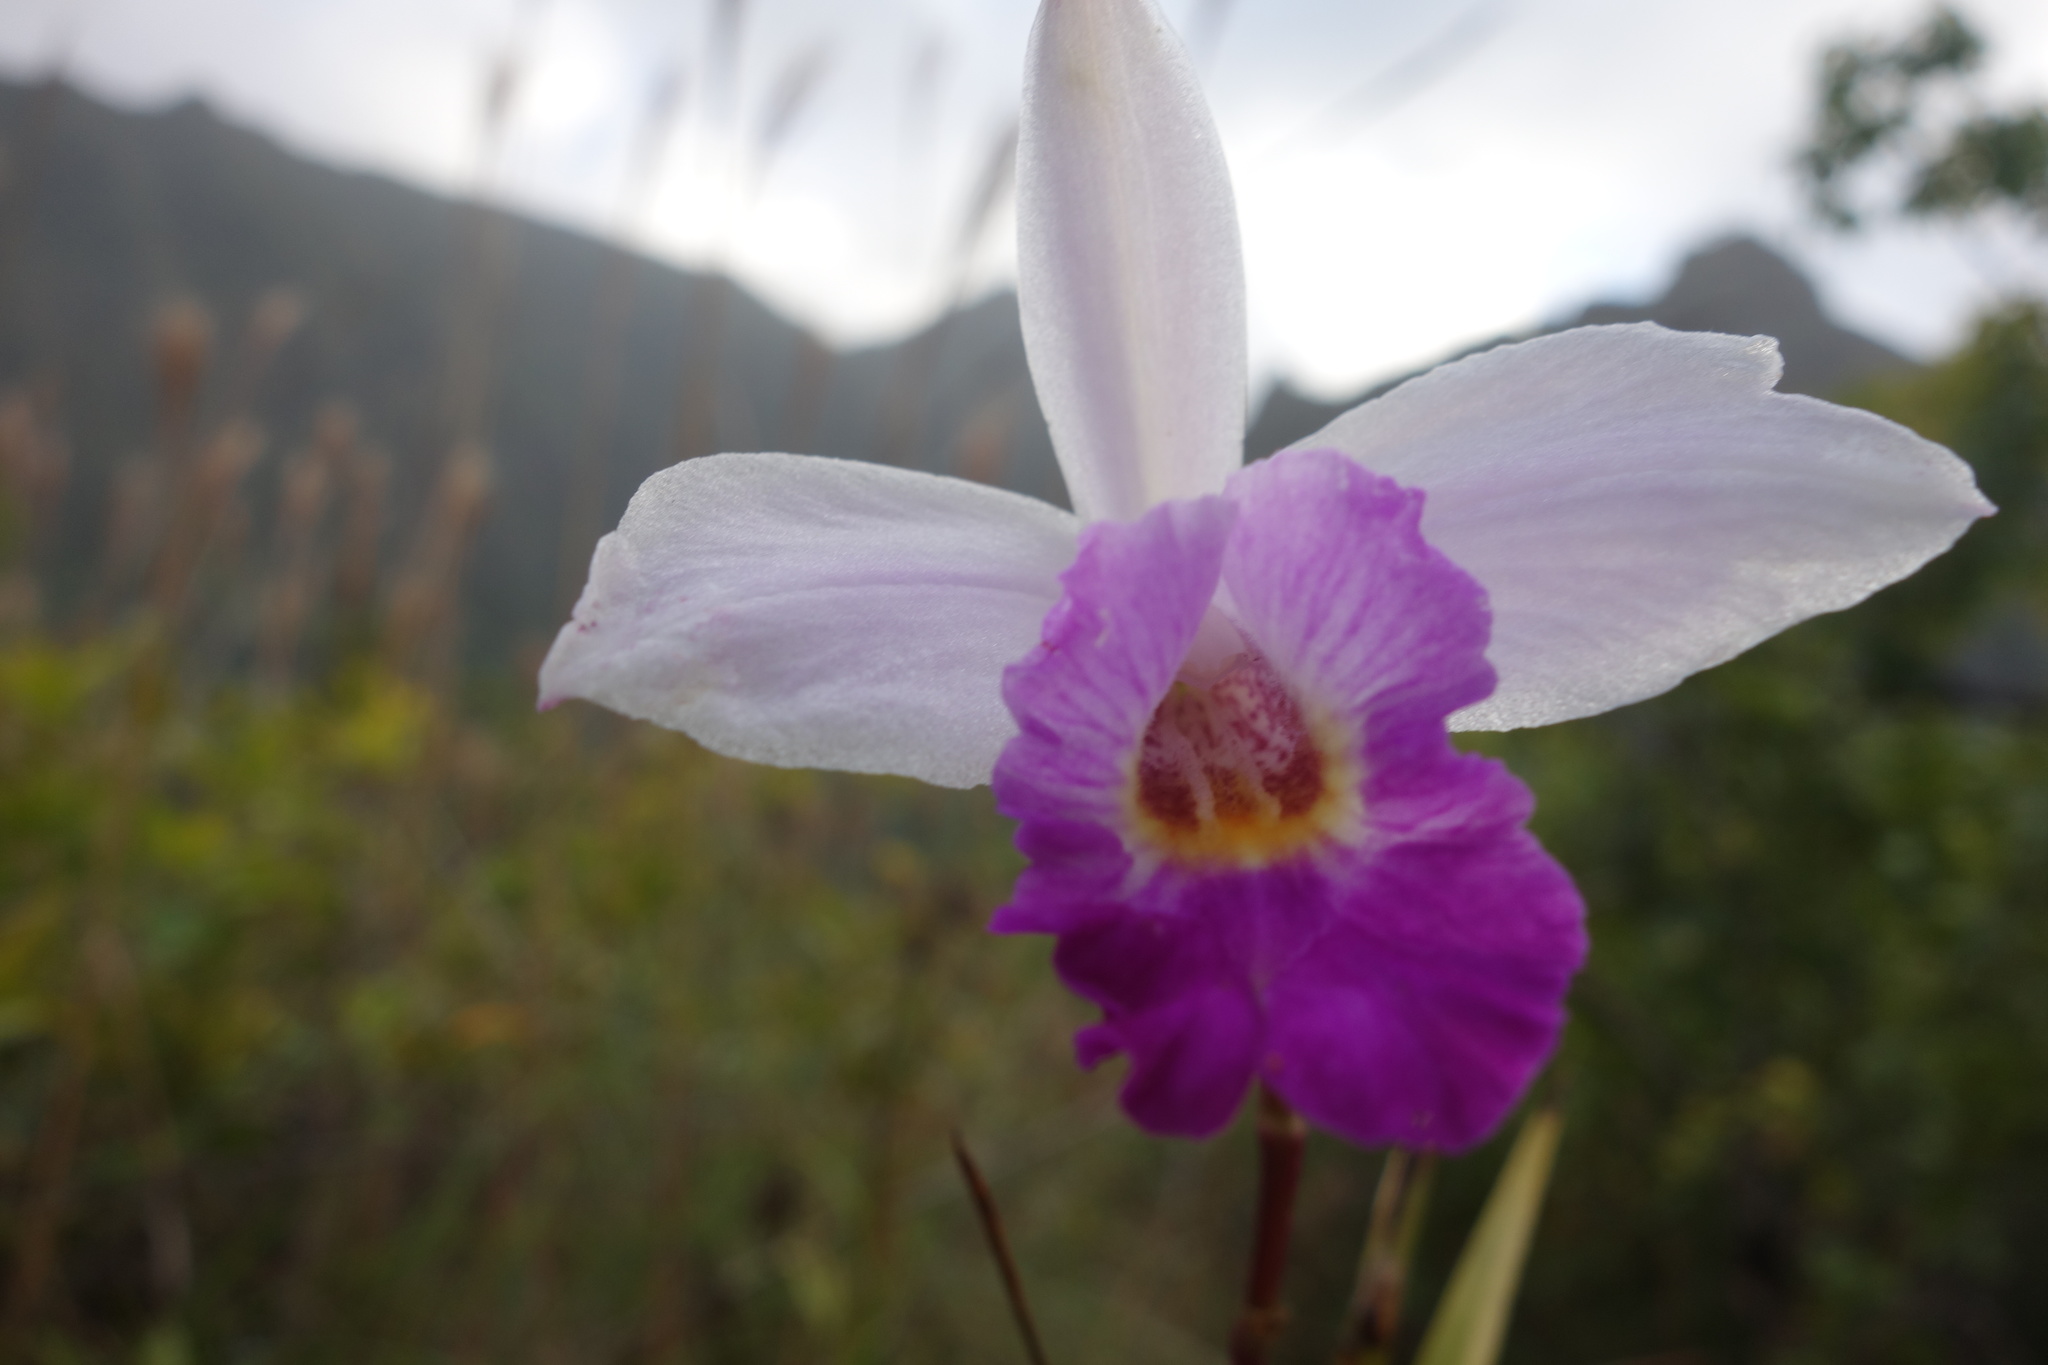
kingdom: Plantae
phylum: Tracheophyta
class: Liliopsida
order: Asparagales
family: Orchidaceae
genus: Arundina
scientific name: Arundina graminifolia
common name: Bamboo orchid
